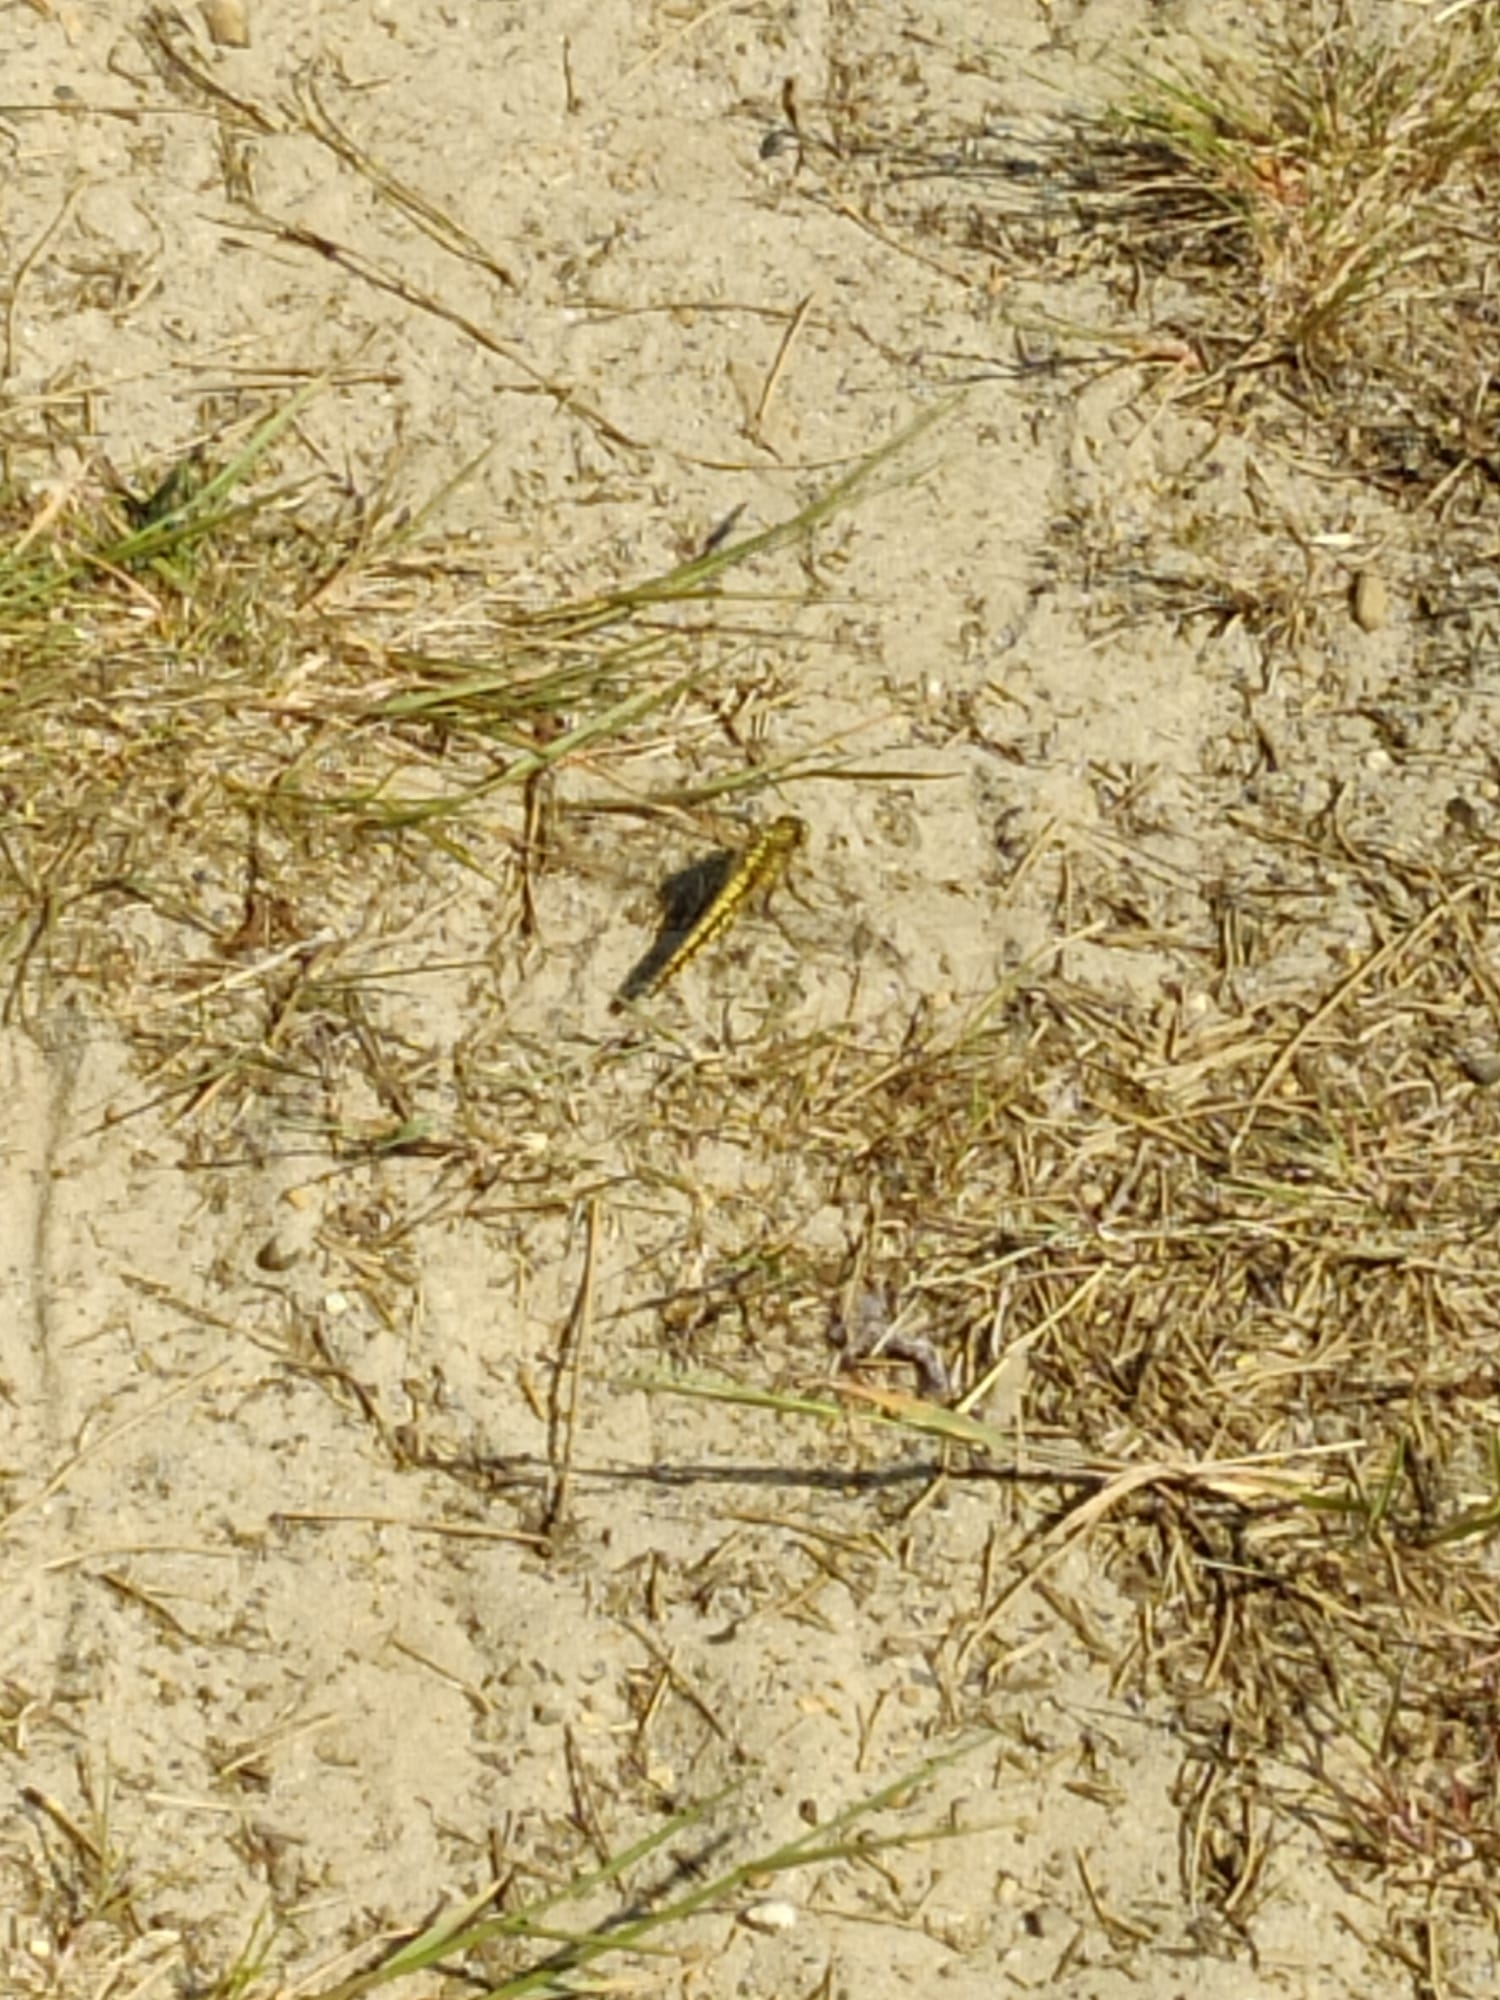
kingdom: Animalia
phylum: Arthropoda
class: Insecta
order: Odonata
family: Libellulidae
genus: Orthetrum
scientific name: Orthetrum cancellatum
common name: Black-tailed skimmer
